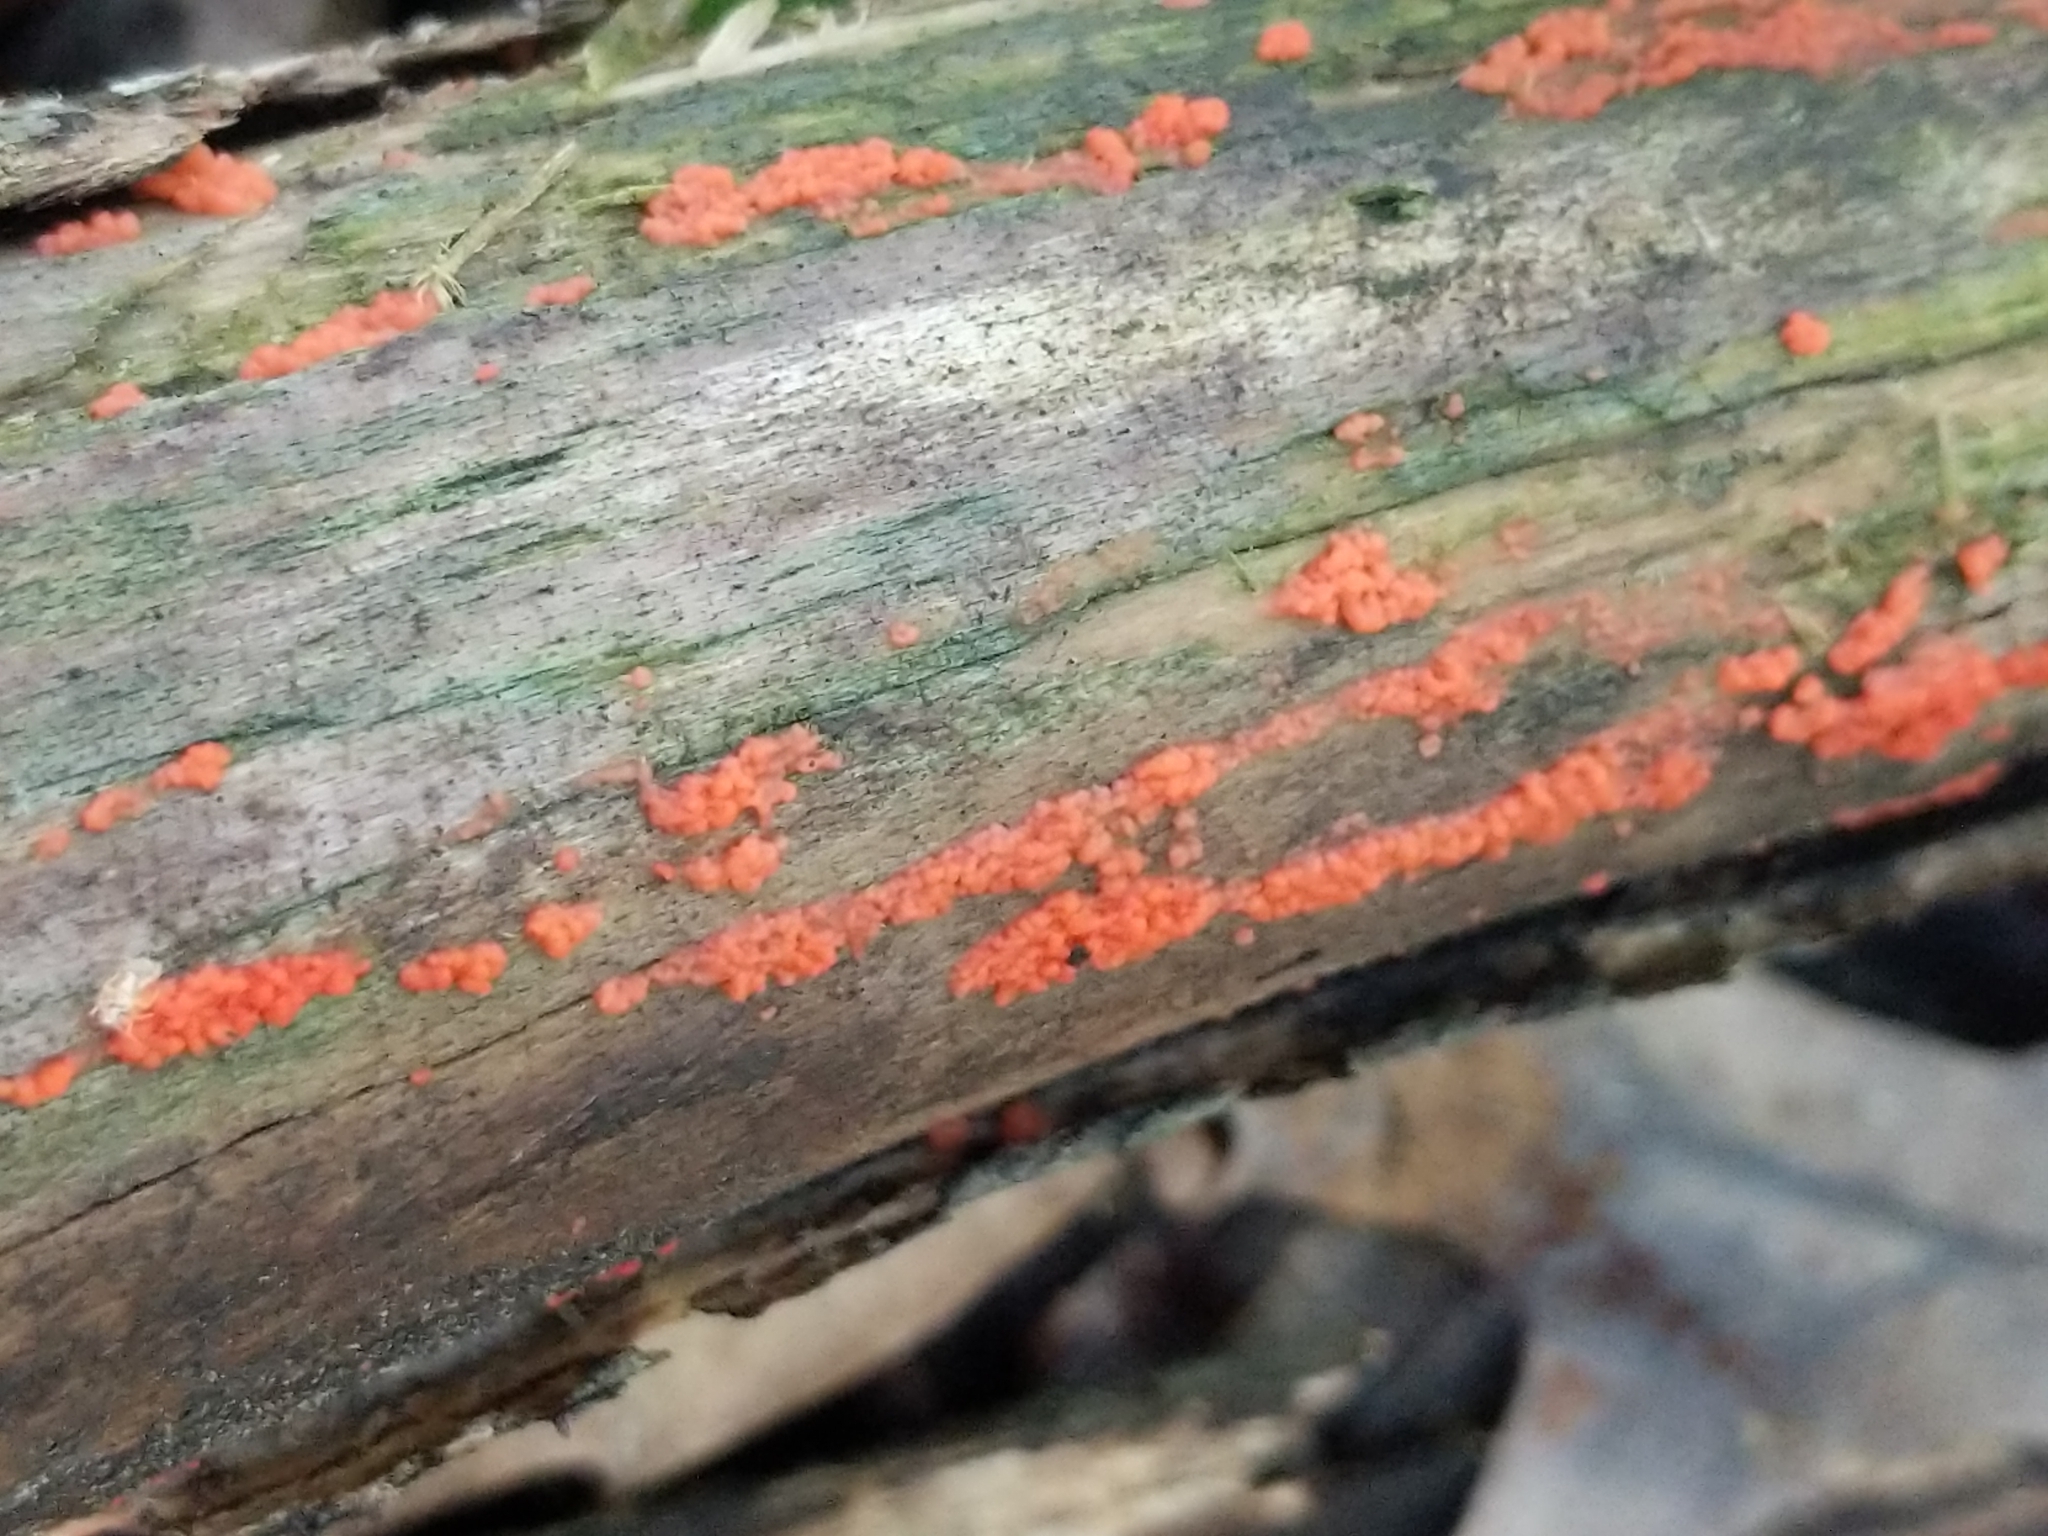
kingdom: Fungi
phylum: Basidiomycota
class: Agaricomycetes
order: Cantharellales
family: Tulasnellaceae
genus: Tulasnella
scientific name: Tulasnella aurantiaca
